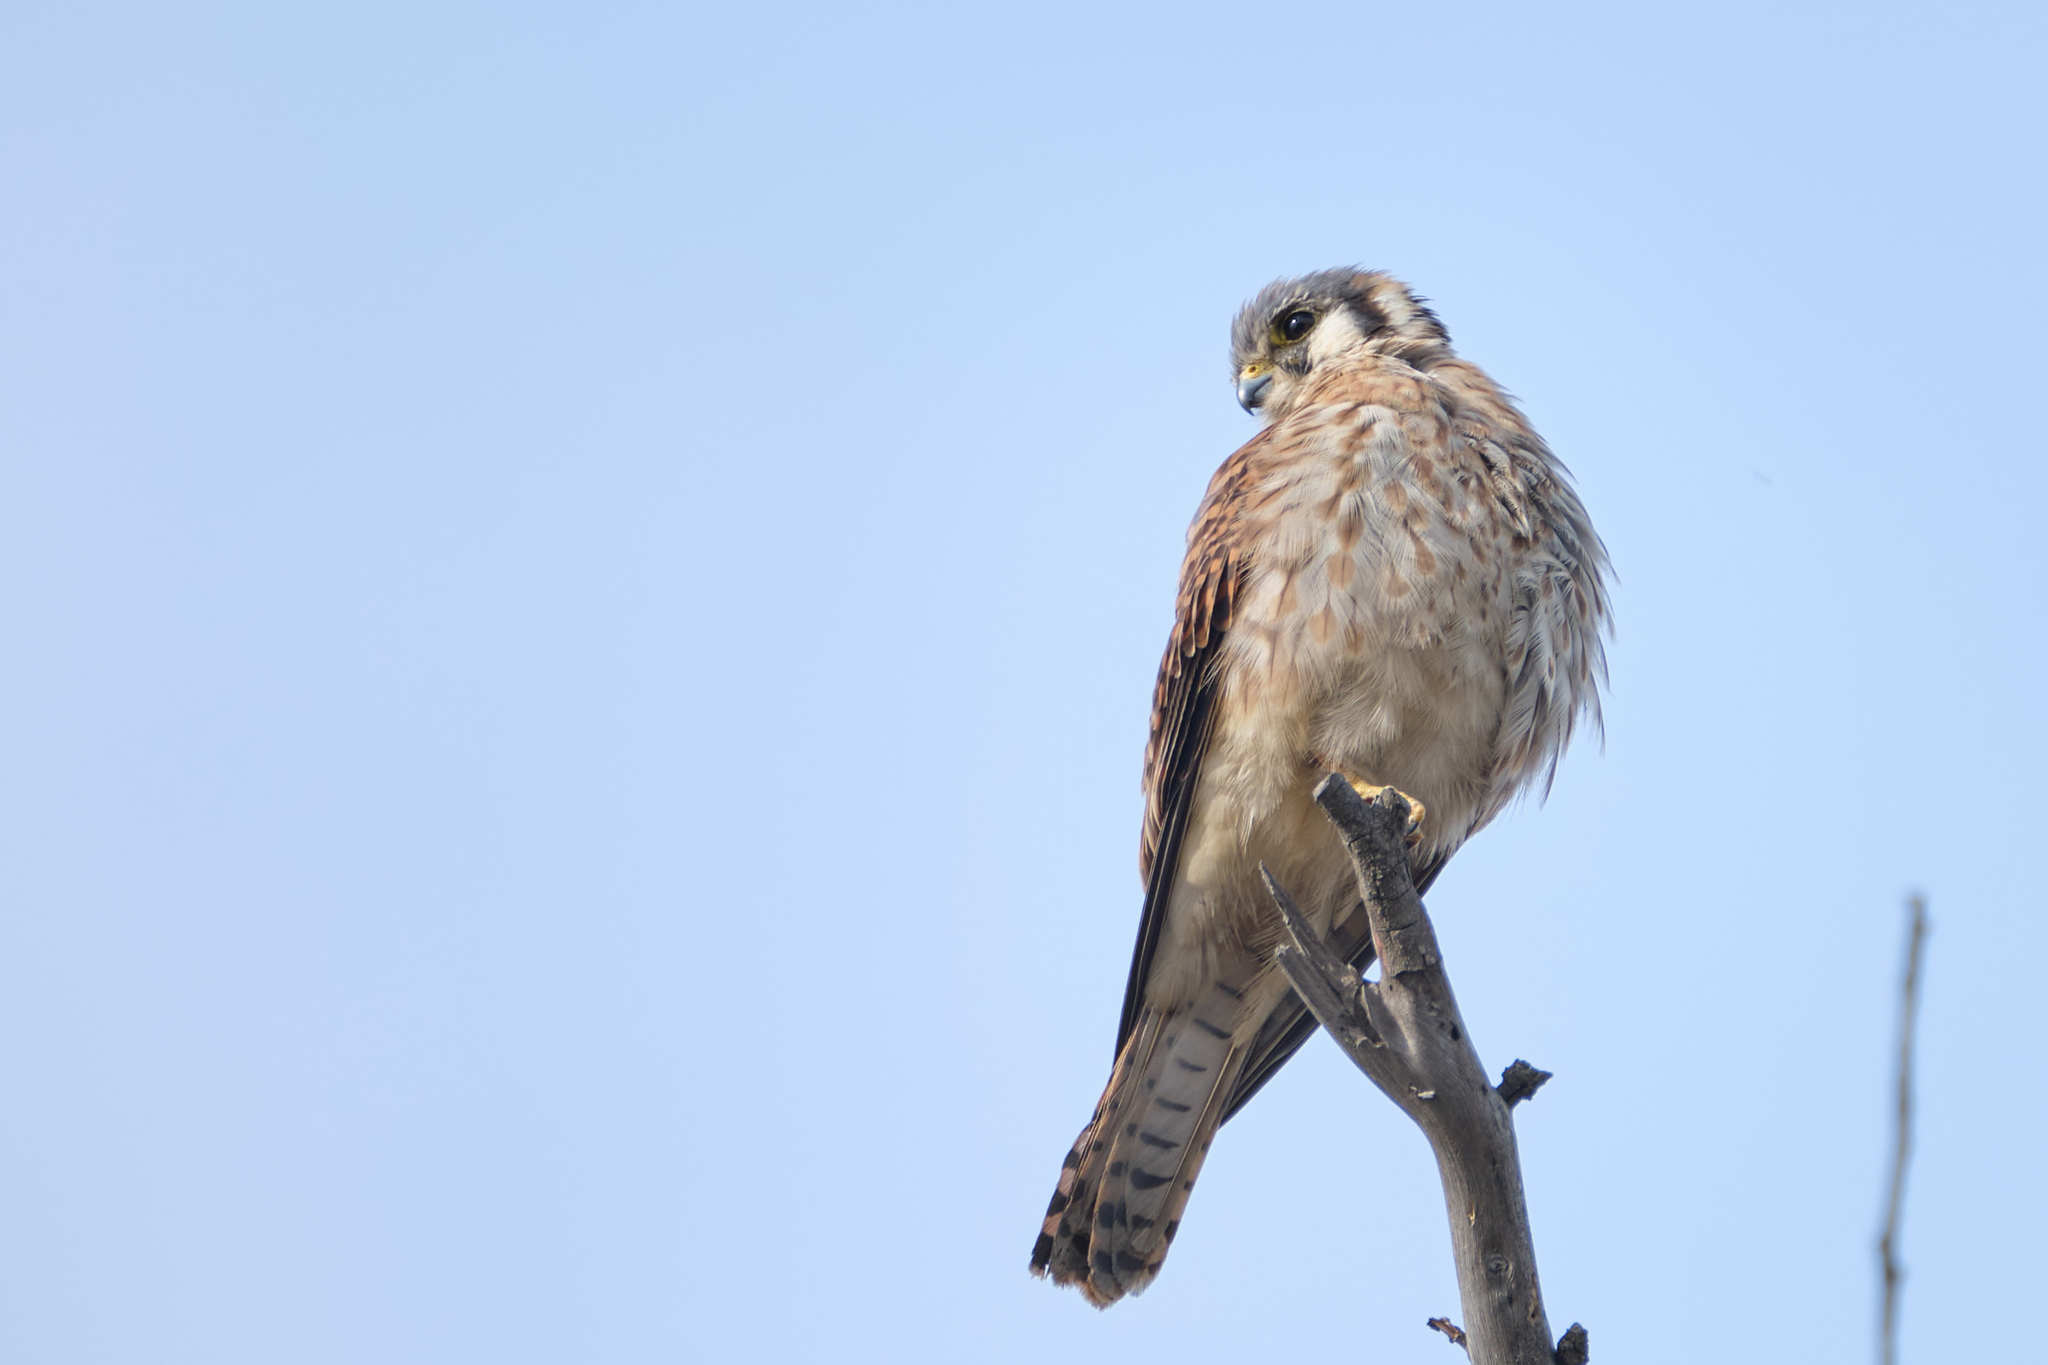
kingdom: Animalia
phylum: Chordata
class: Aves
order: Falconiformes
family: Falconidae
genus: Falco
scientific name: Falco sparverius
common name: American kestrel
